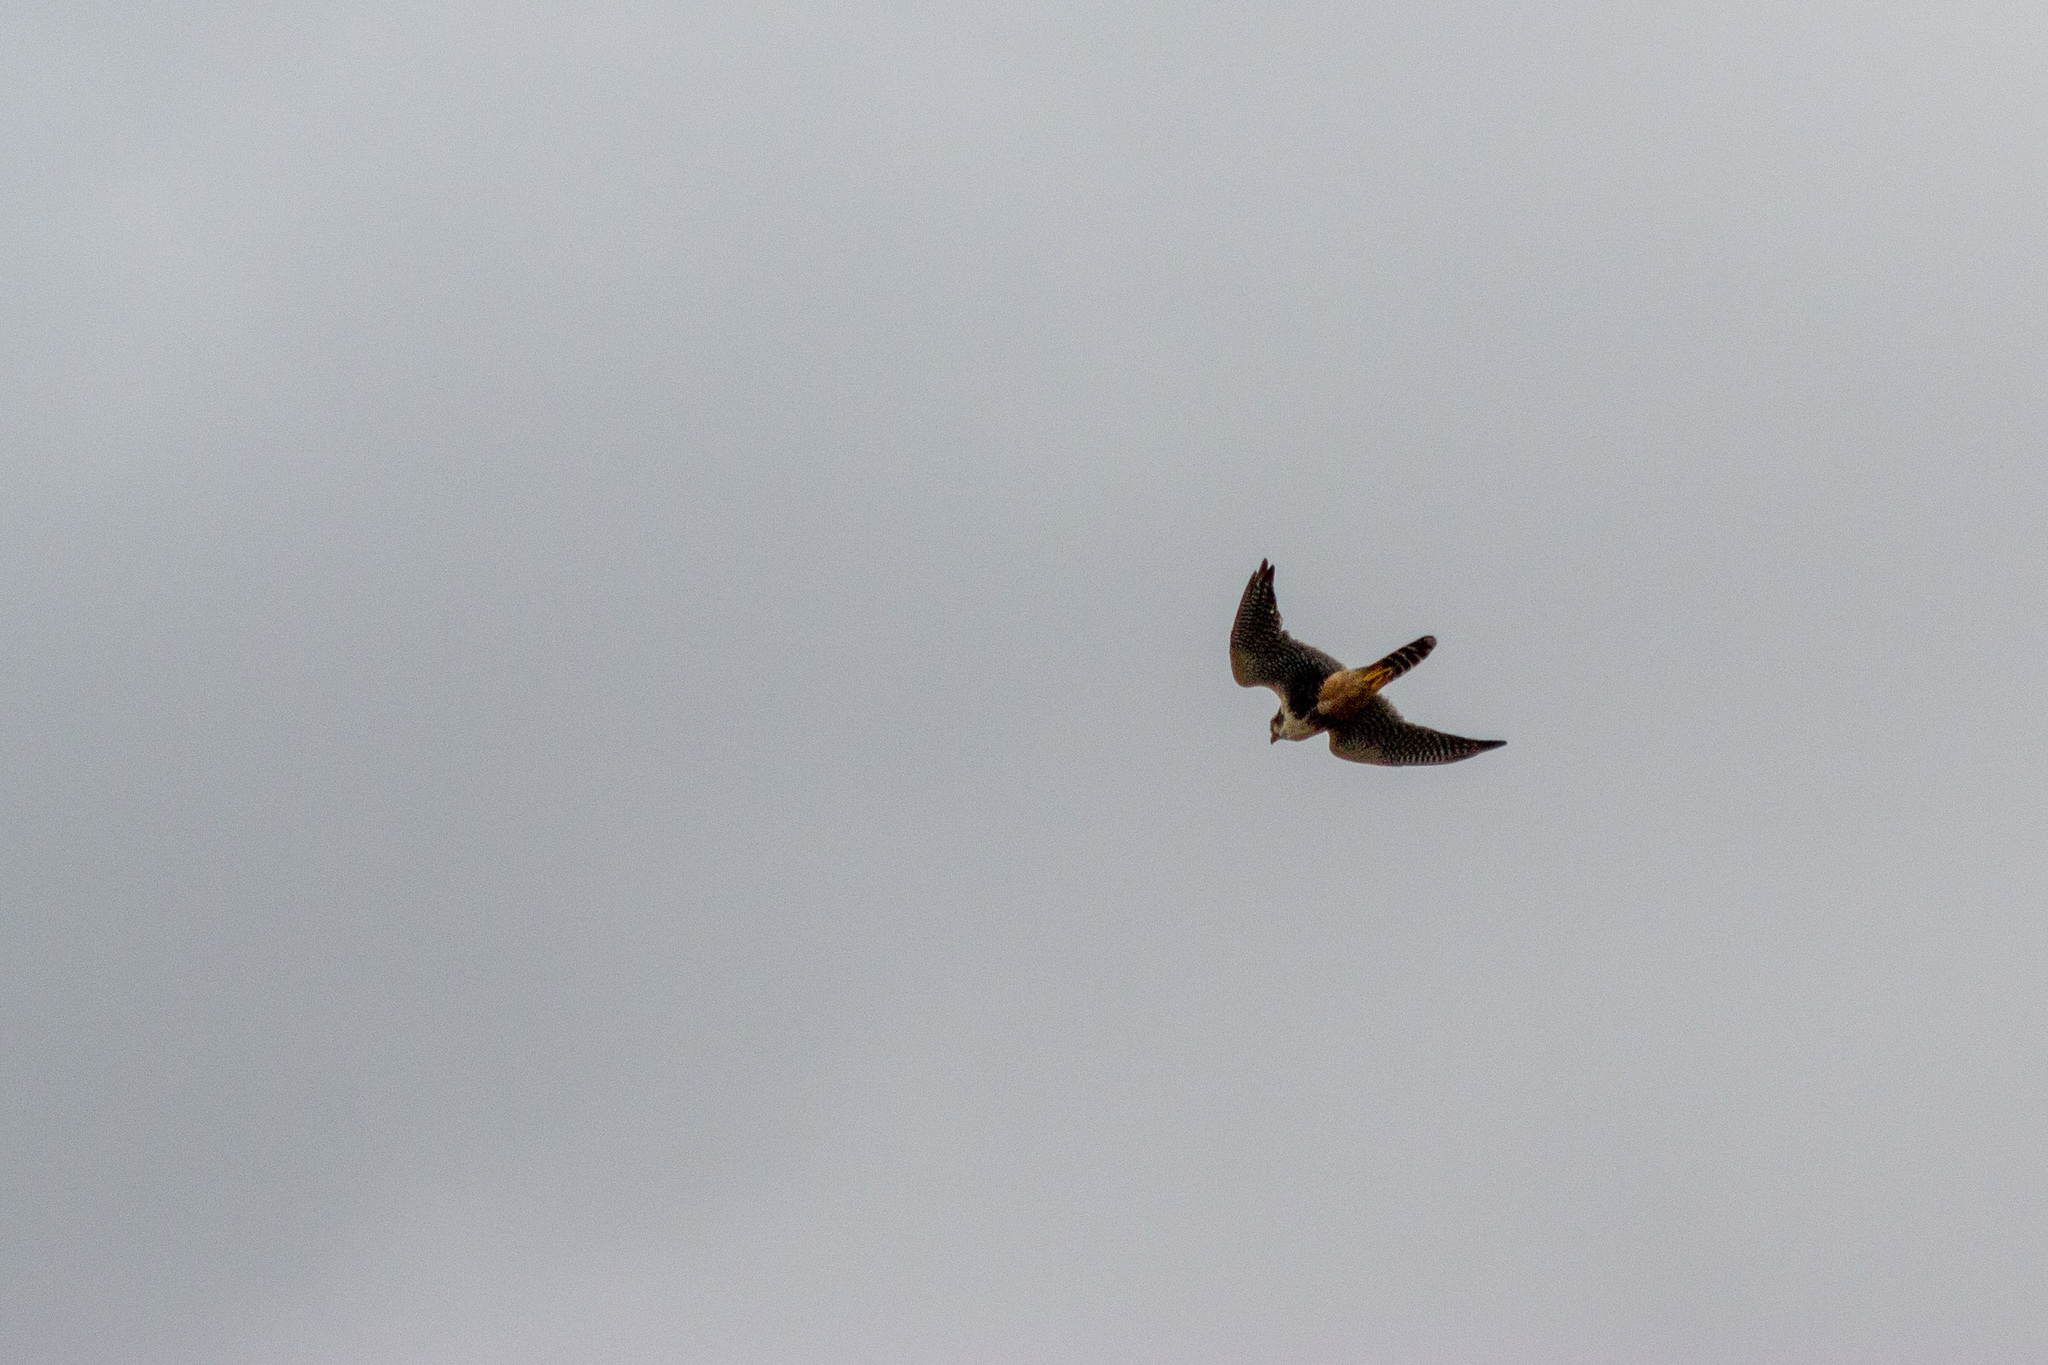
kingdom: Animalia
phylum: Chordata
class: Aves
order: Falconiformes
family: Falconidae
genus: Falco
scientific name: Falco femoralis
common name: Aplomado falcon
